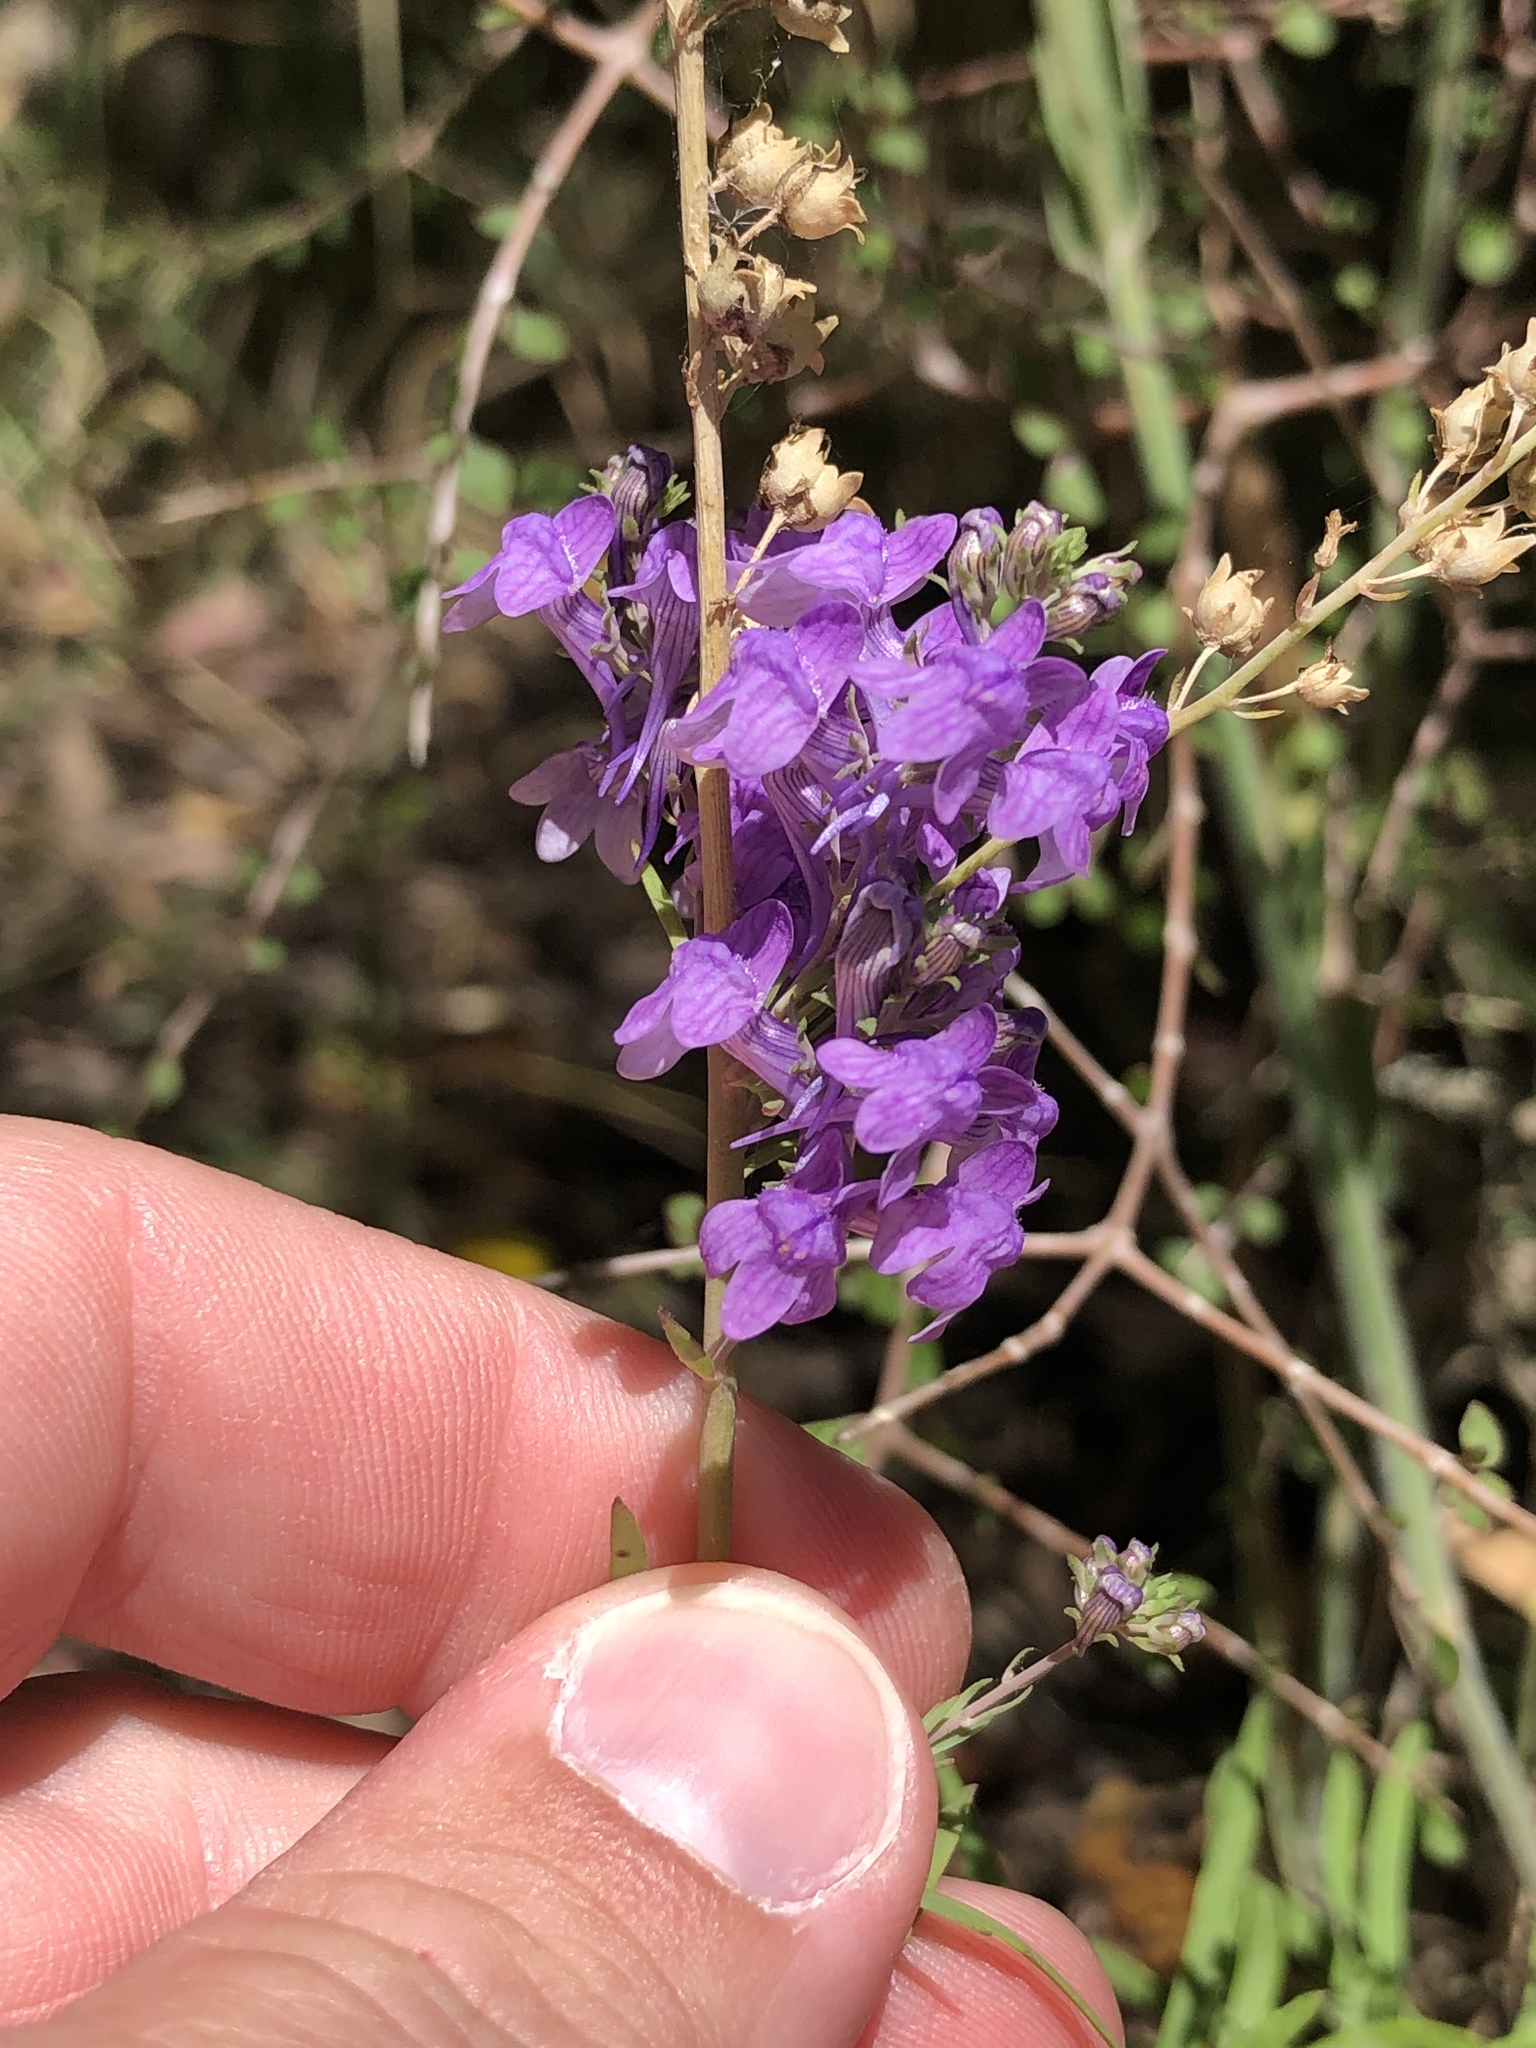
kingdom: Plantae
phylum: Tracheophyta
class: Magnoliopsida
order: Lamiales
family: Plantaginaceae
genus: Linaria
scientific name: Linaria purpurea
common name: Purple toadflax
